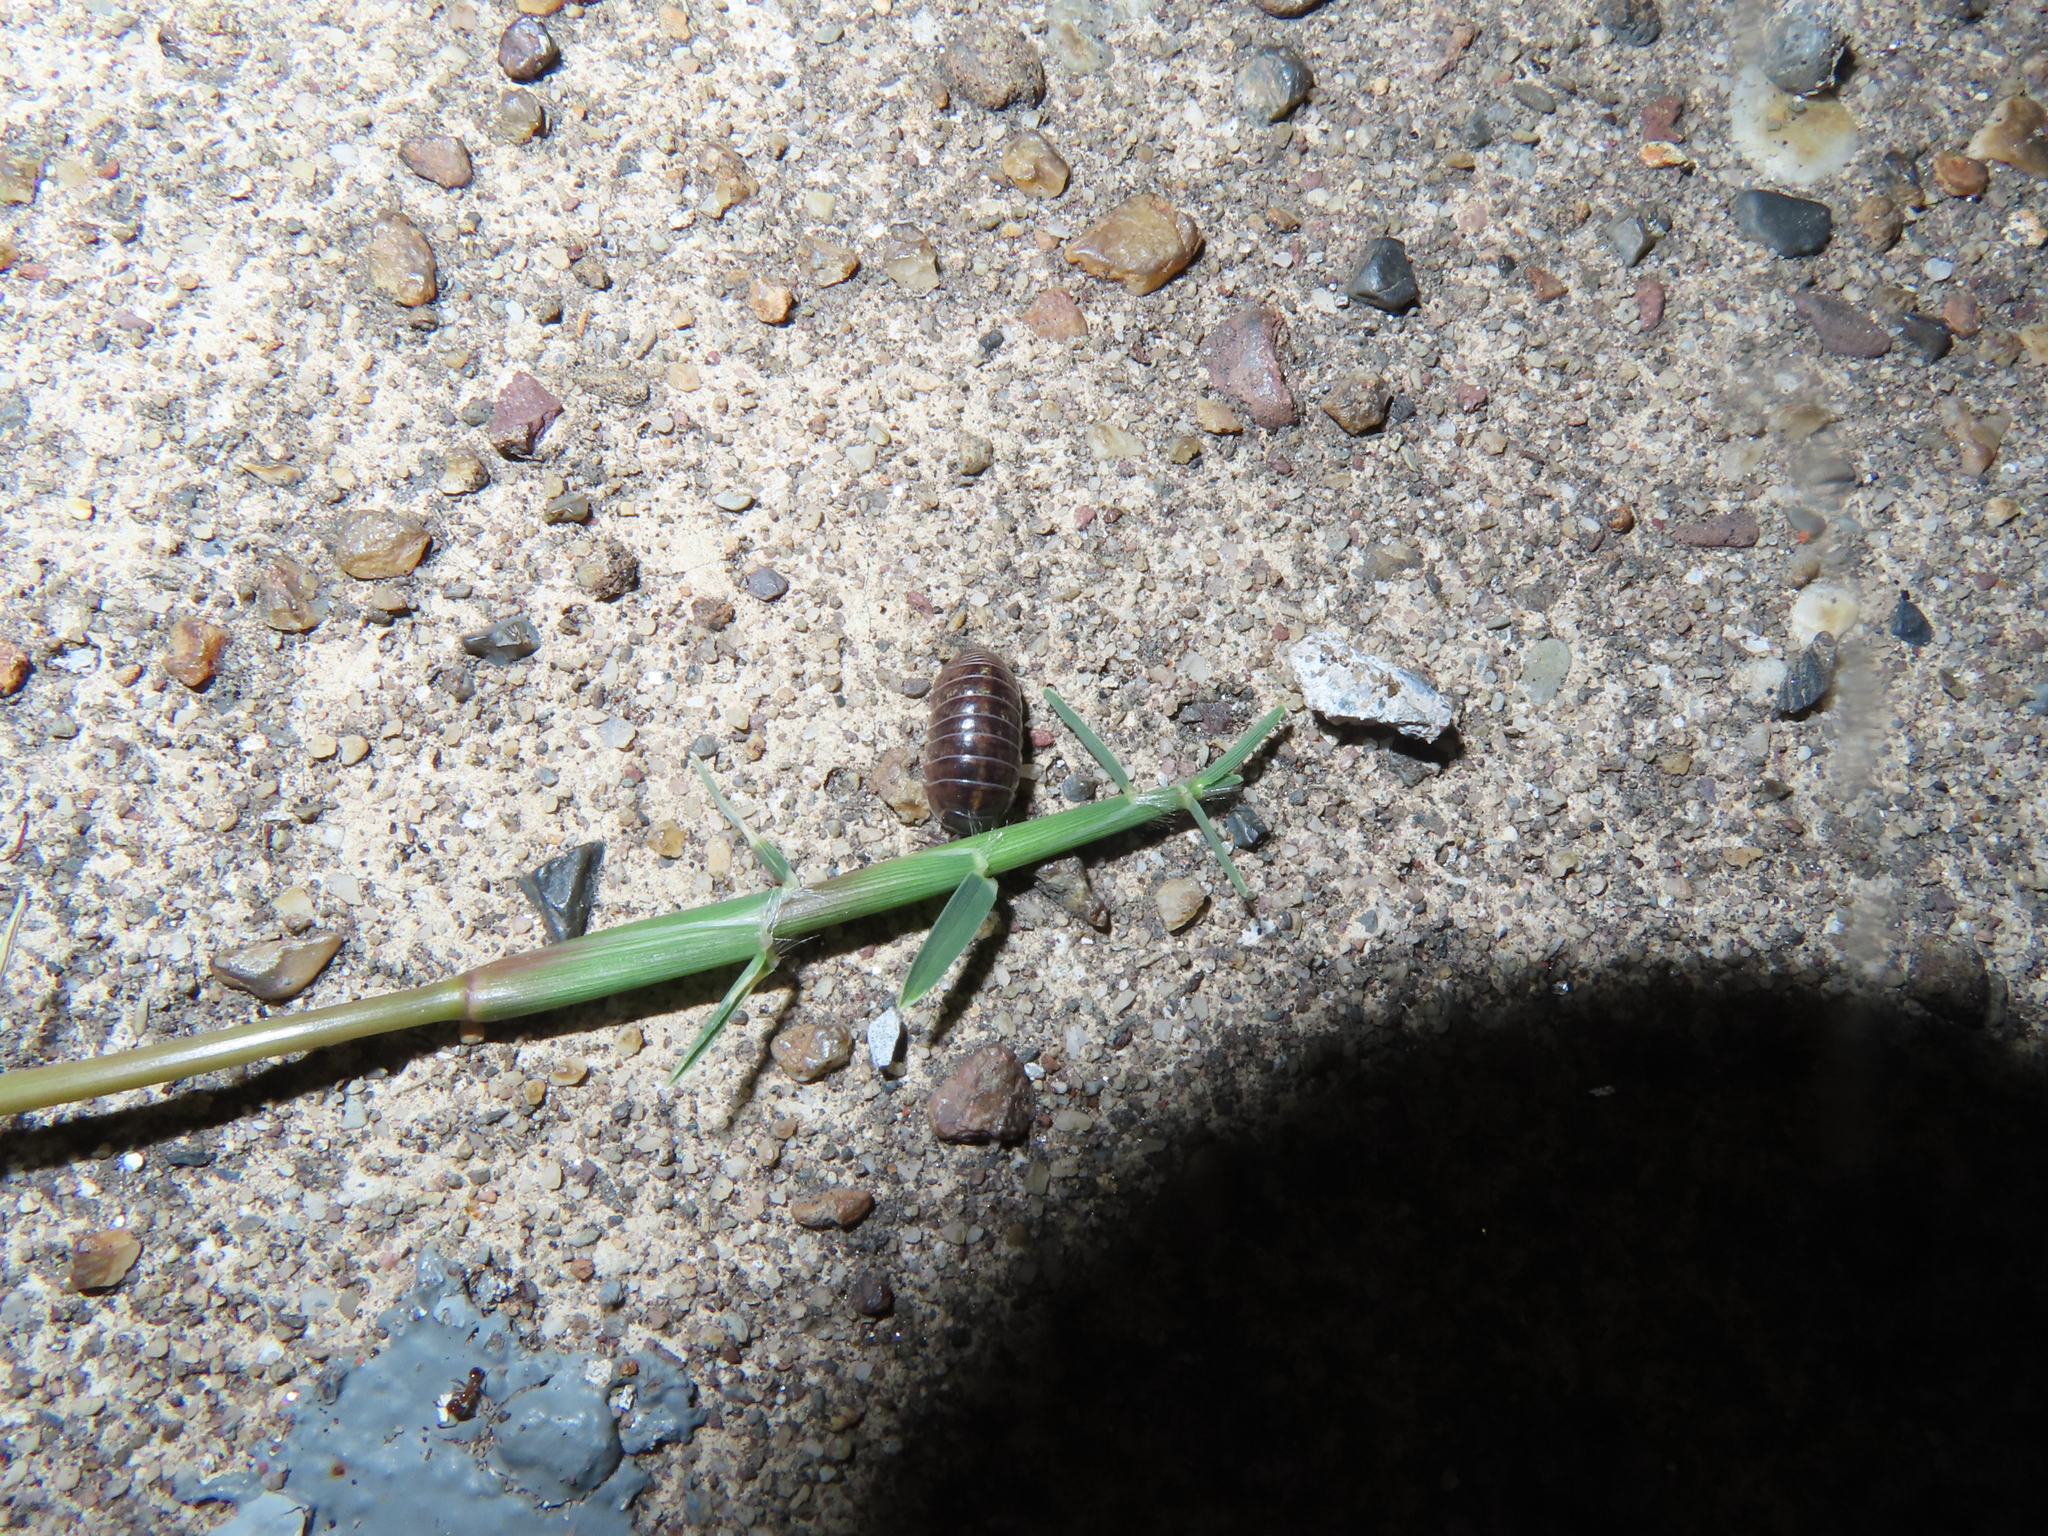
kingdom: Animalia
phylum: Arthropoda
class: Malacostraca
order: Isopoda
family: Armadillidiidae
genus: Armadillidium
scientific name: Armadillidium vulgare
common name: Common pill woodlouse
